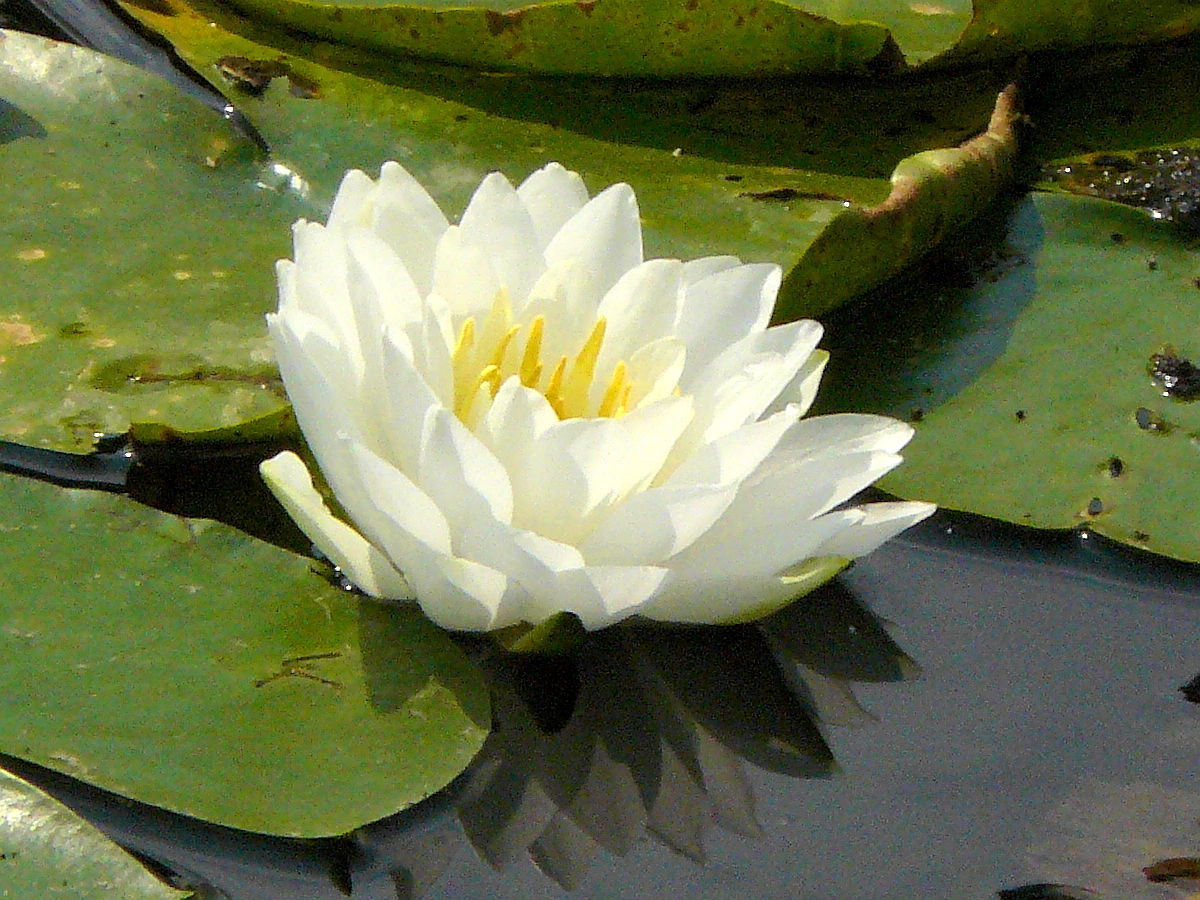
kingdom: Plantae
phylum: Tracheophyta
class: Magnoliopsida
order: Nymphaeales
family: Nymphaeaceae
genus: Nymphaea
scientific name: Nymphaea odorata
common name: Fragrant water-lily
